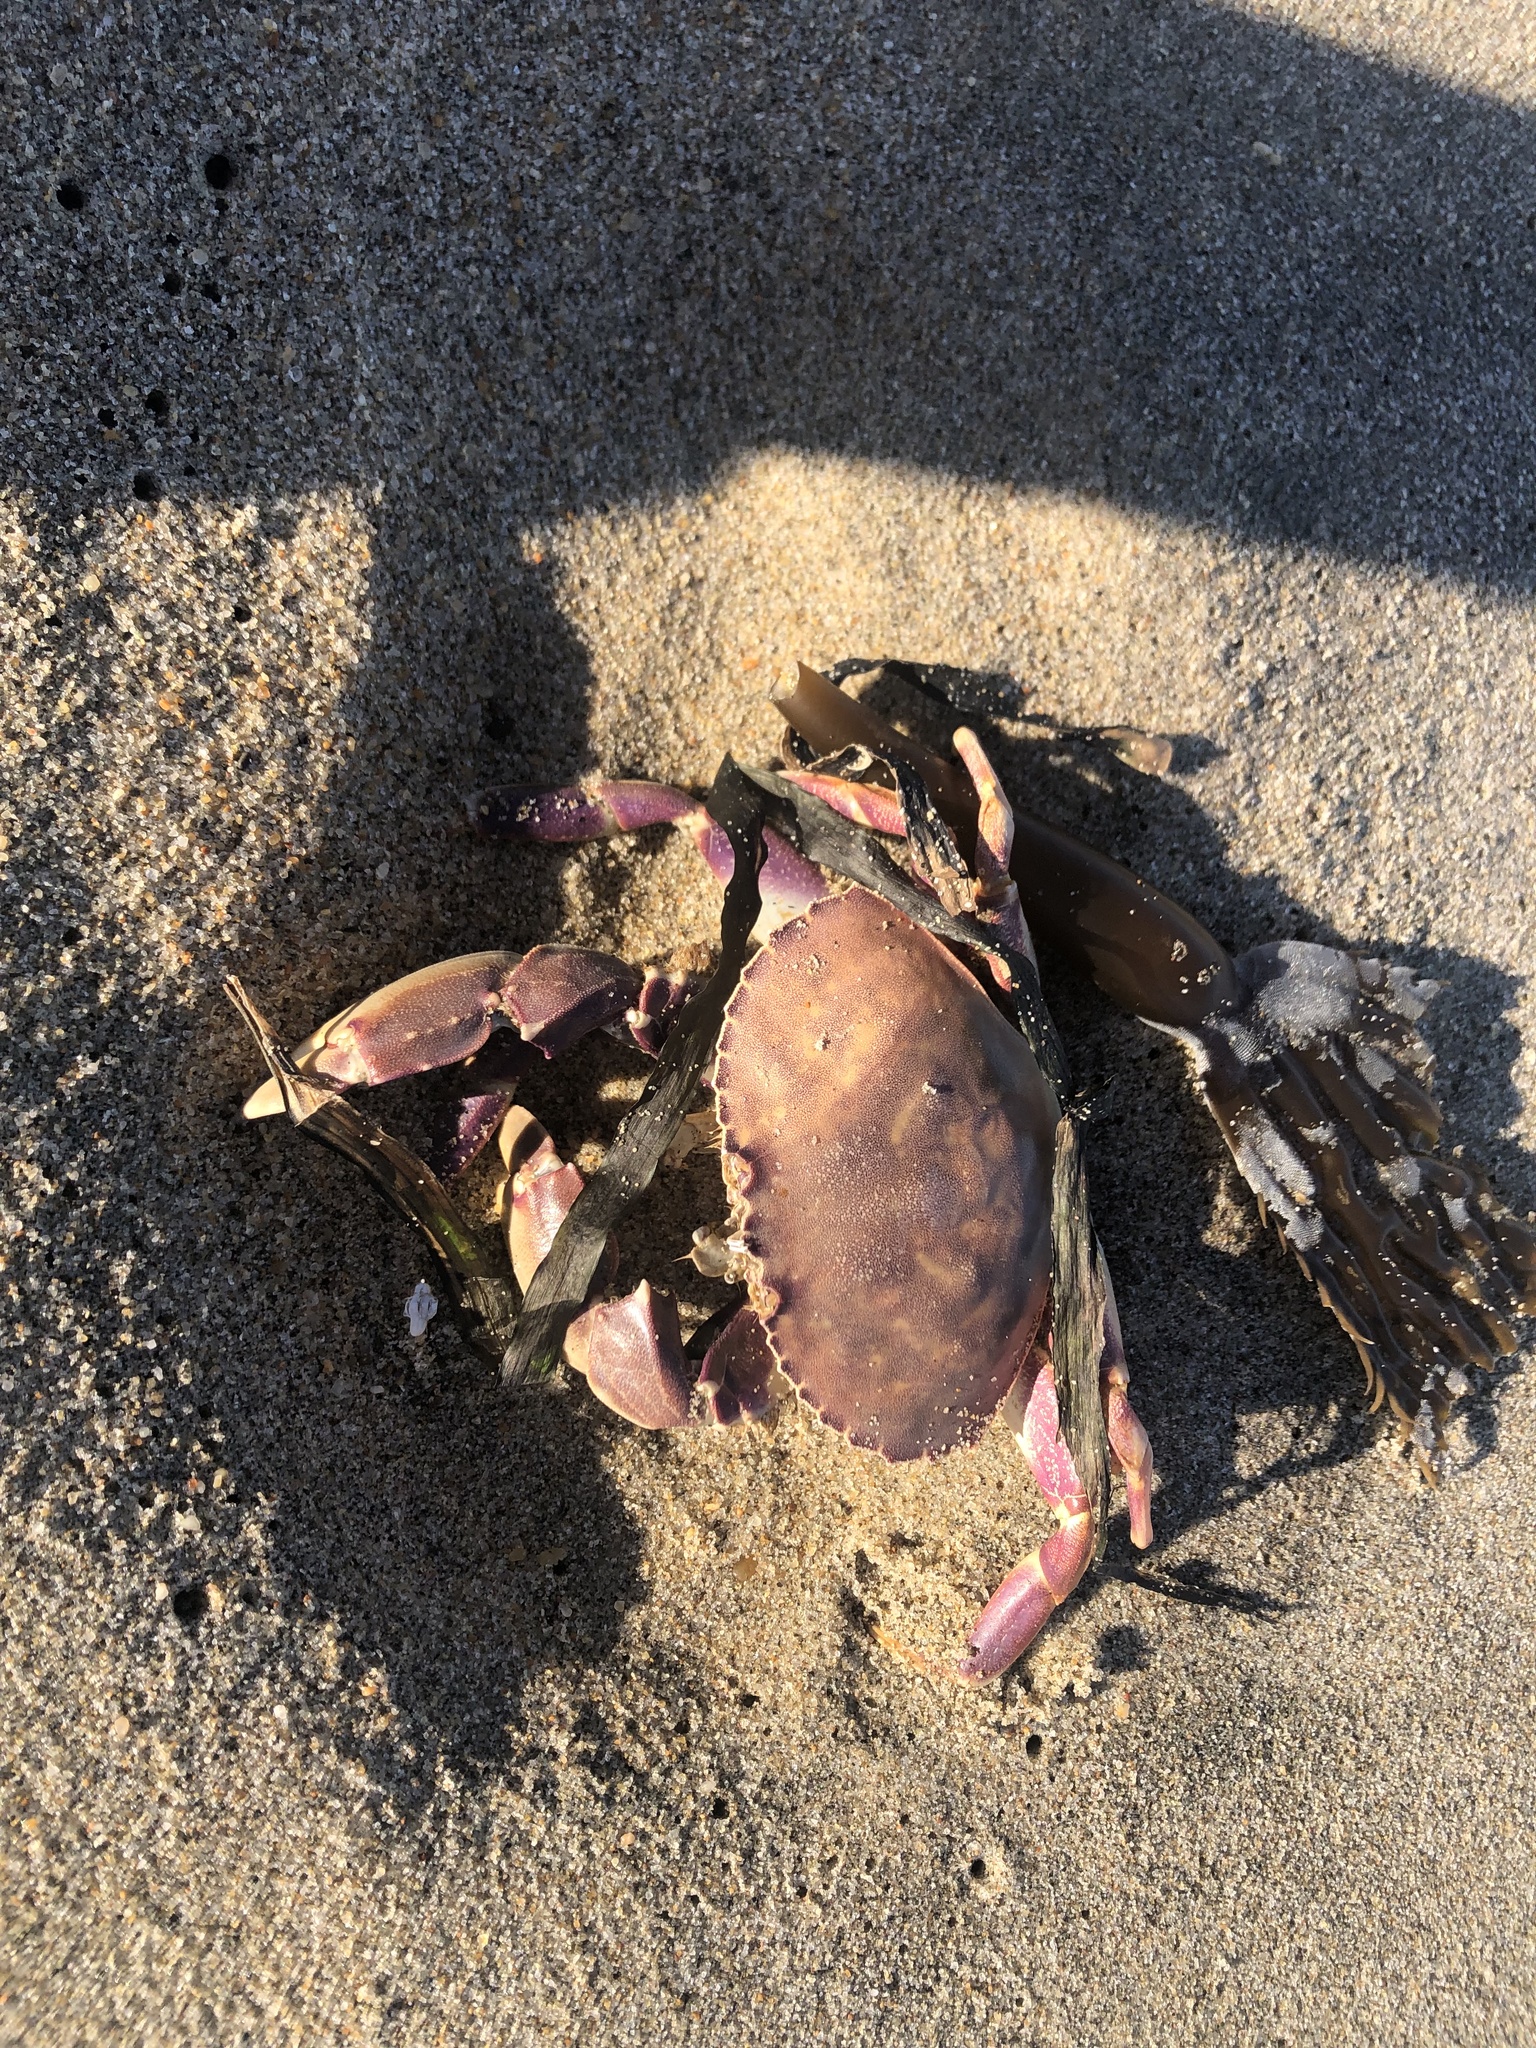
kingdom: Animalia
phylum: Arthropoda
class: Malacostraca
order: Decapoda
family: Cancridae
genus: Metacarcinus
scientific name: Metacarcinus gracilis
